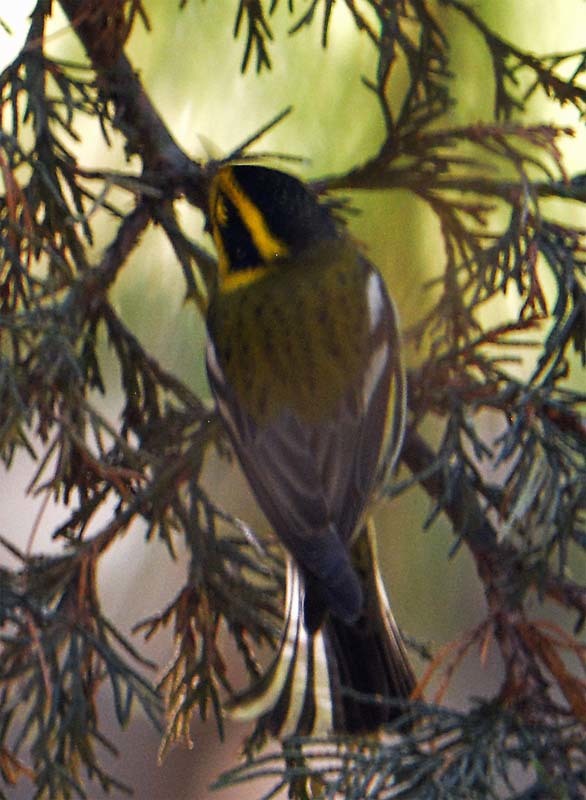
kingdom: Animalia
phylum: Chordata
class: Aves
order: Passeriformes
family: Parulidae
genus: Setophaga
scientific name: Setophaga townsendi
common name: Townsend's warbler
